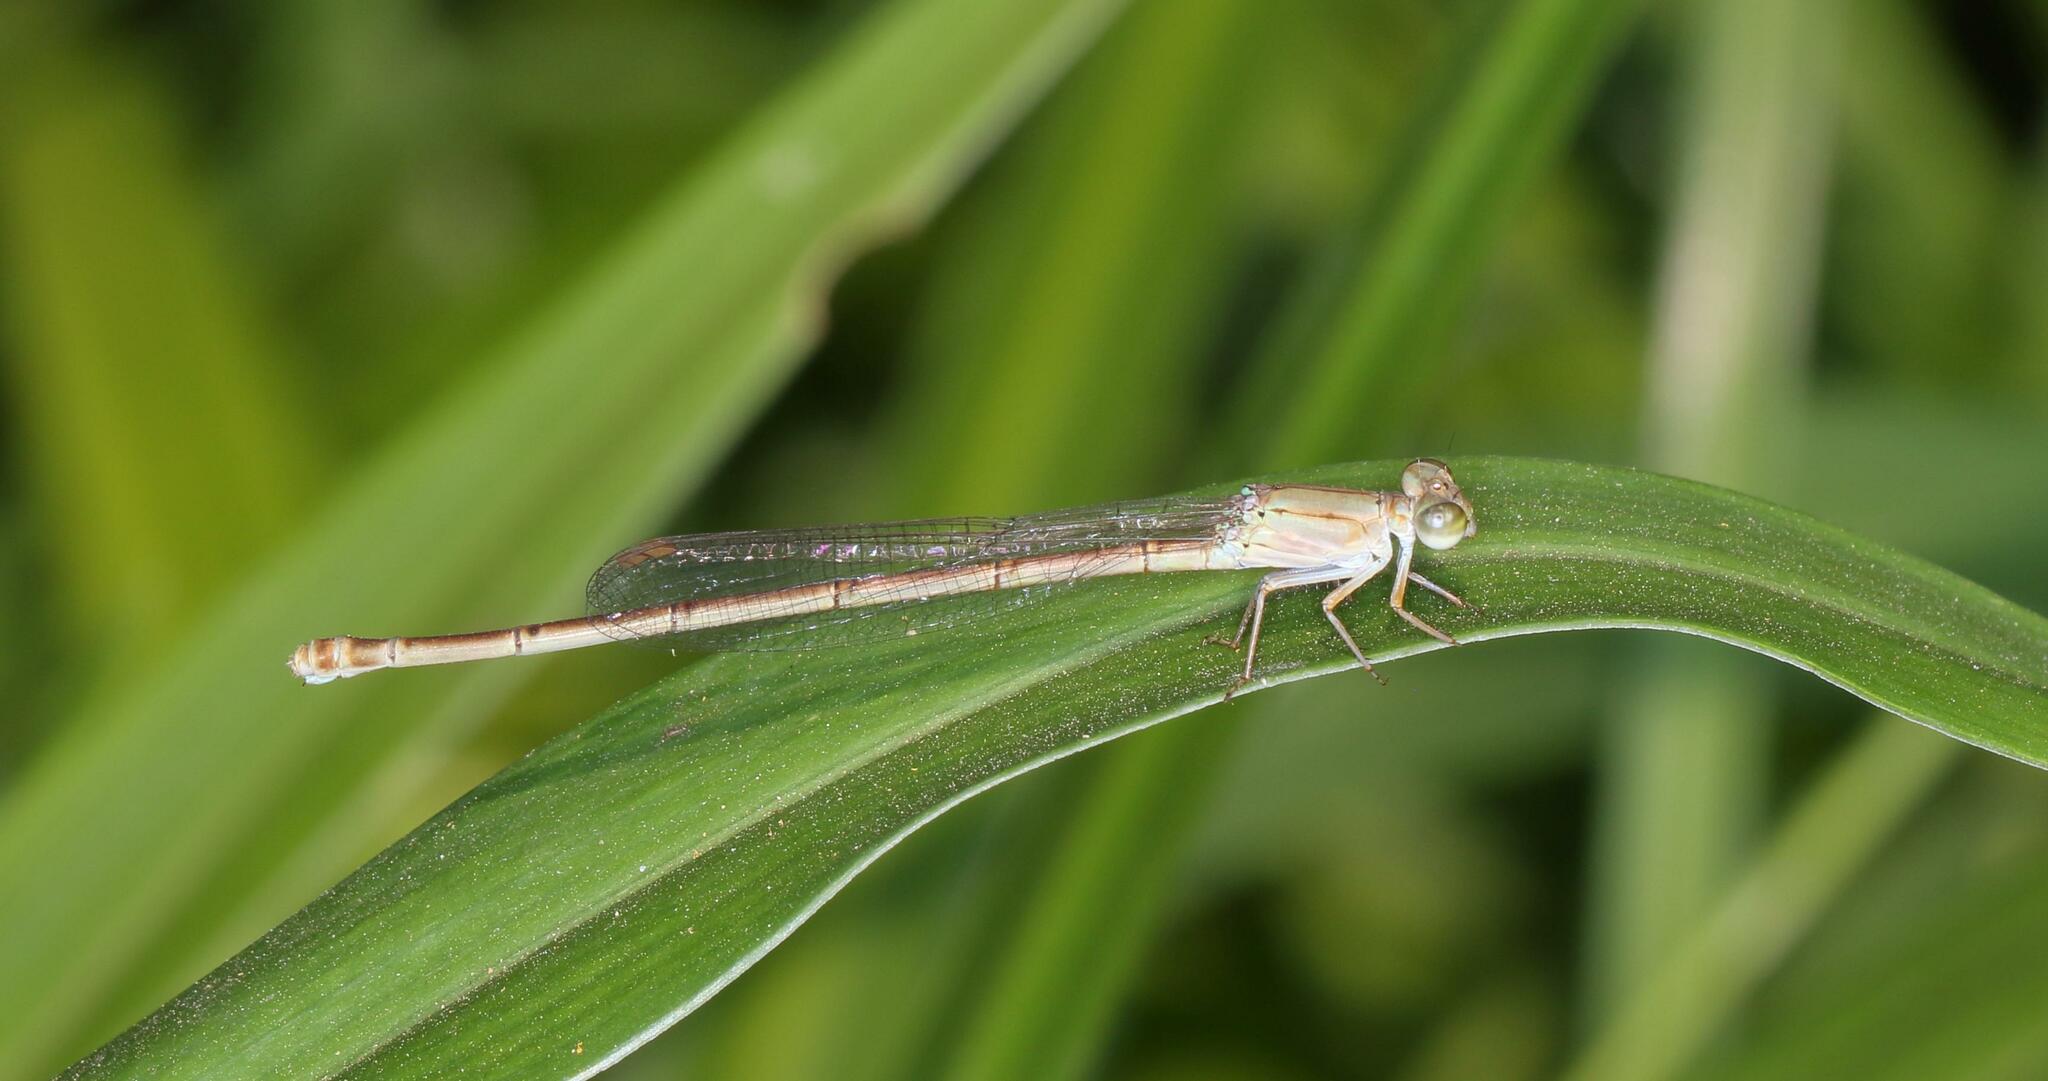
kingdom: Animalia
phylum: Arthropoda
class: Insecta
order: Odonata
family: Coenagrionidae
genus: Ceriagrion
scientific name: Ceriagrion glabrum
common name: Common pond damsel
